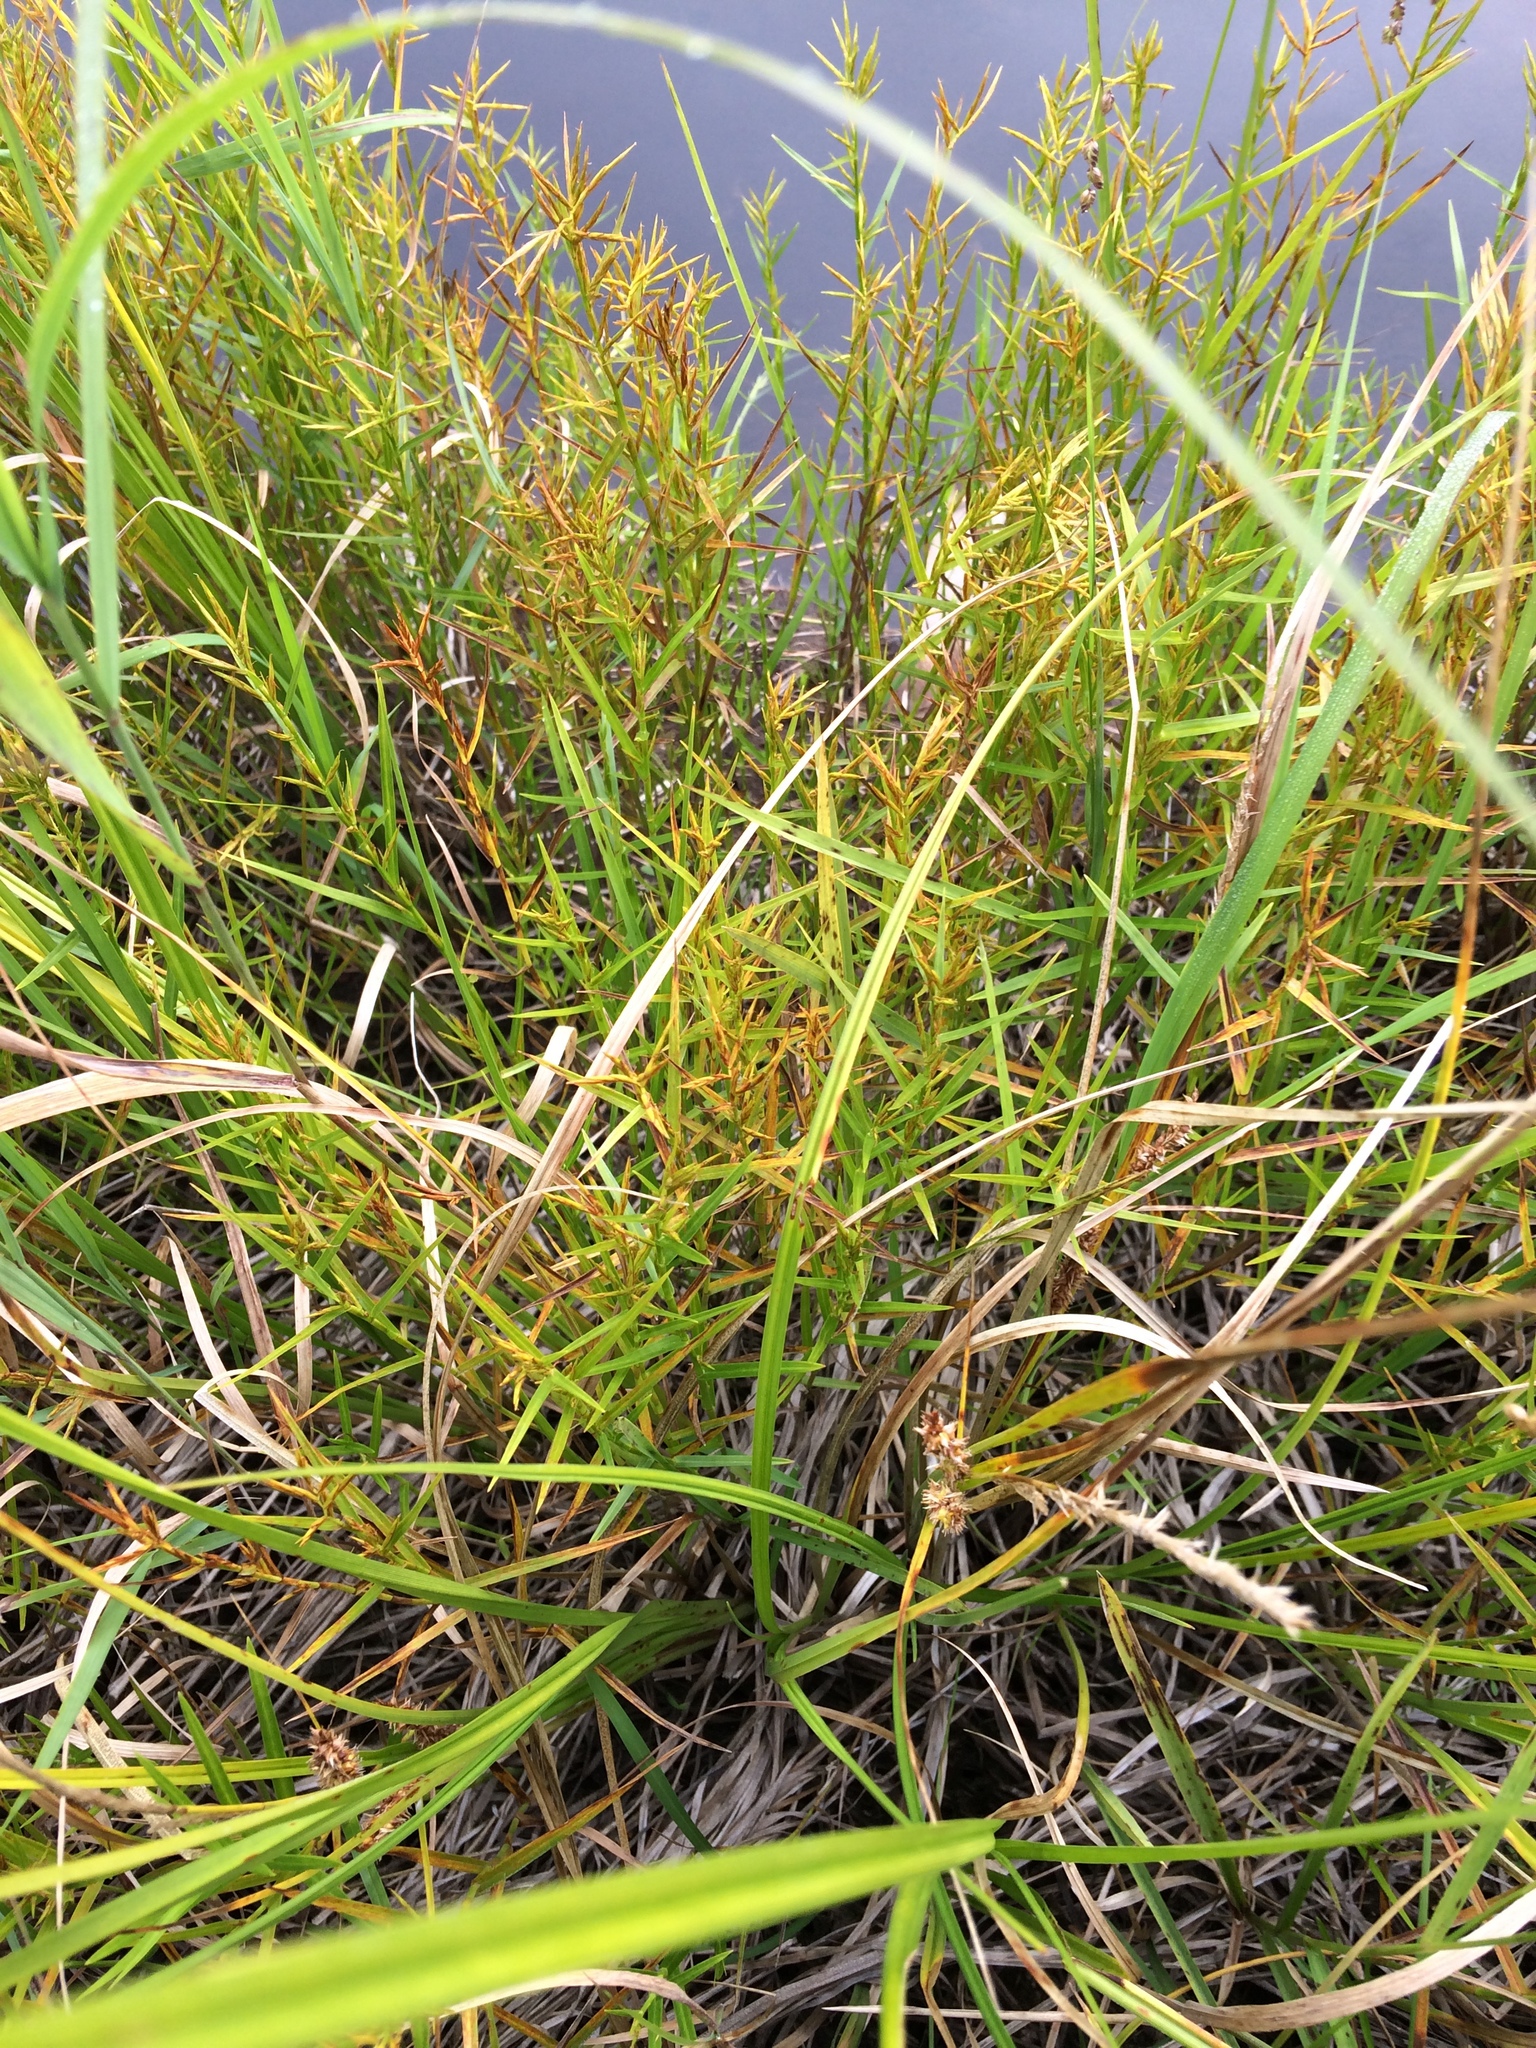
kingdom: Plantae
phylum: Tracheophyta
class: Liliopsida
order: Poales
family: Cyperaceae
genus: Dulichium
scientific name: Dulichium arundinaceum
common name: Three-way sedge
